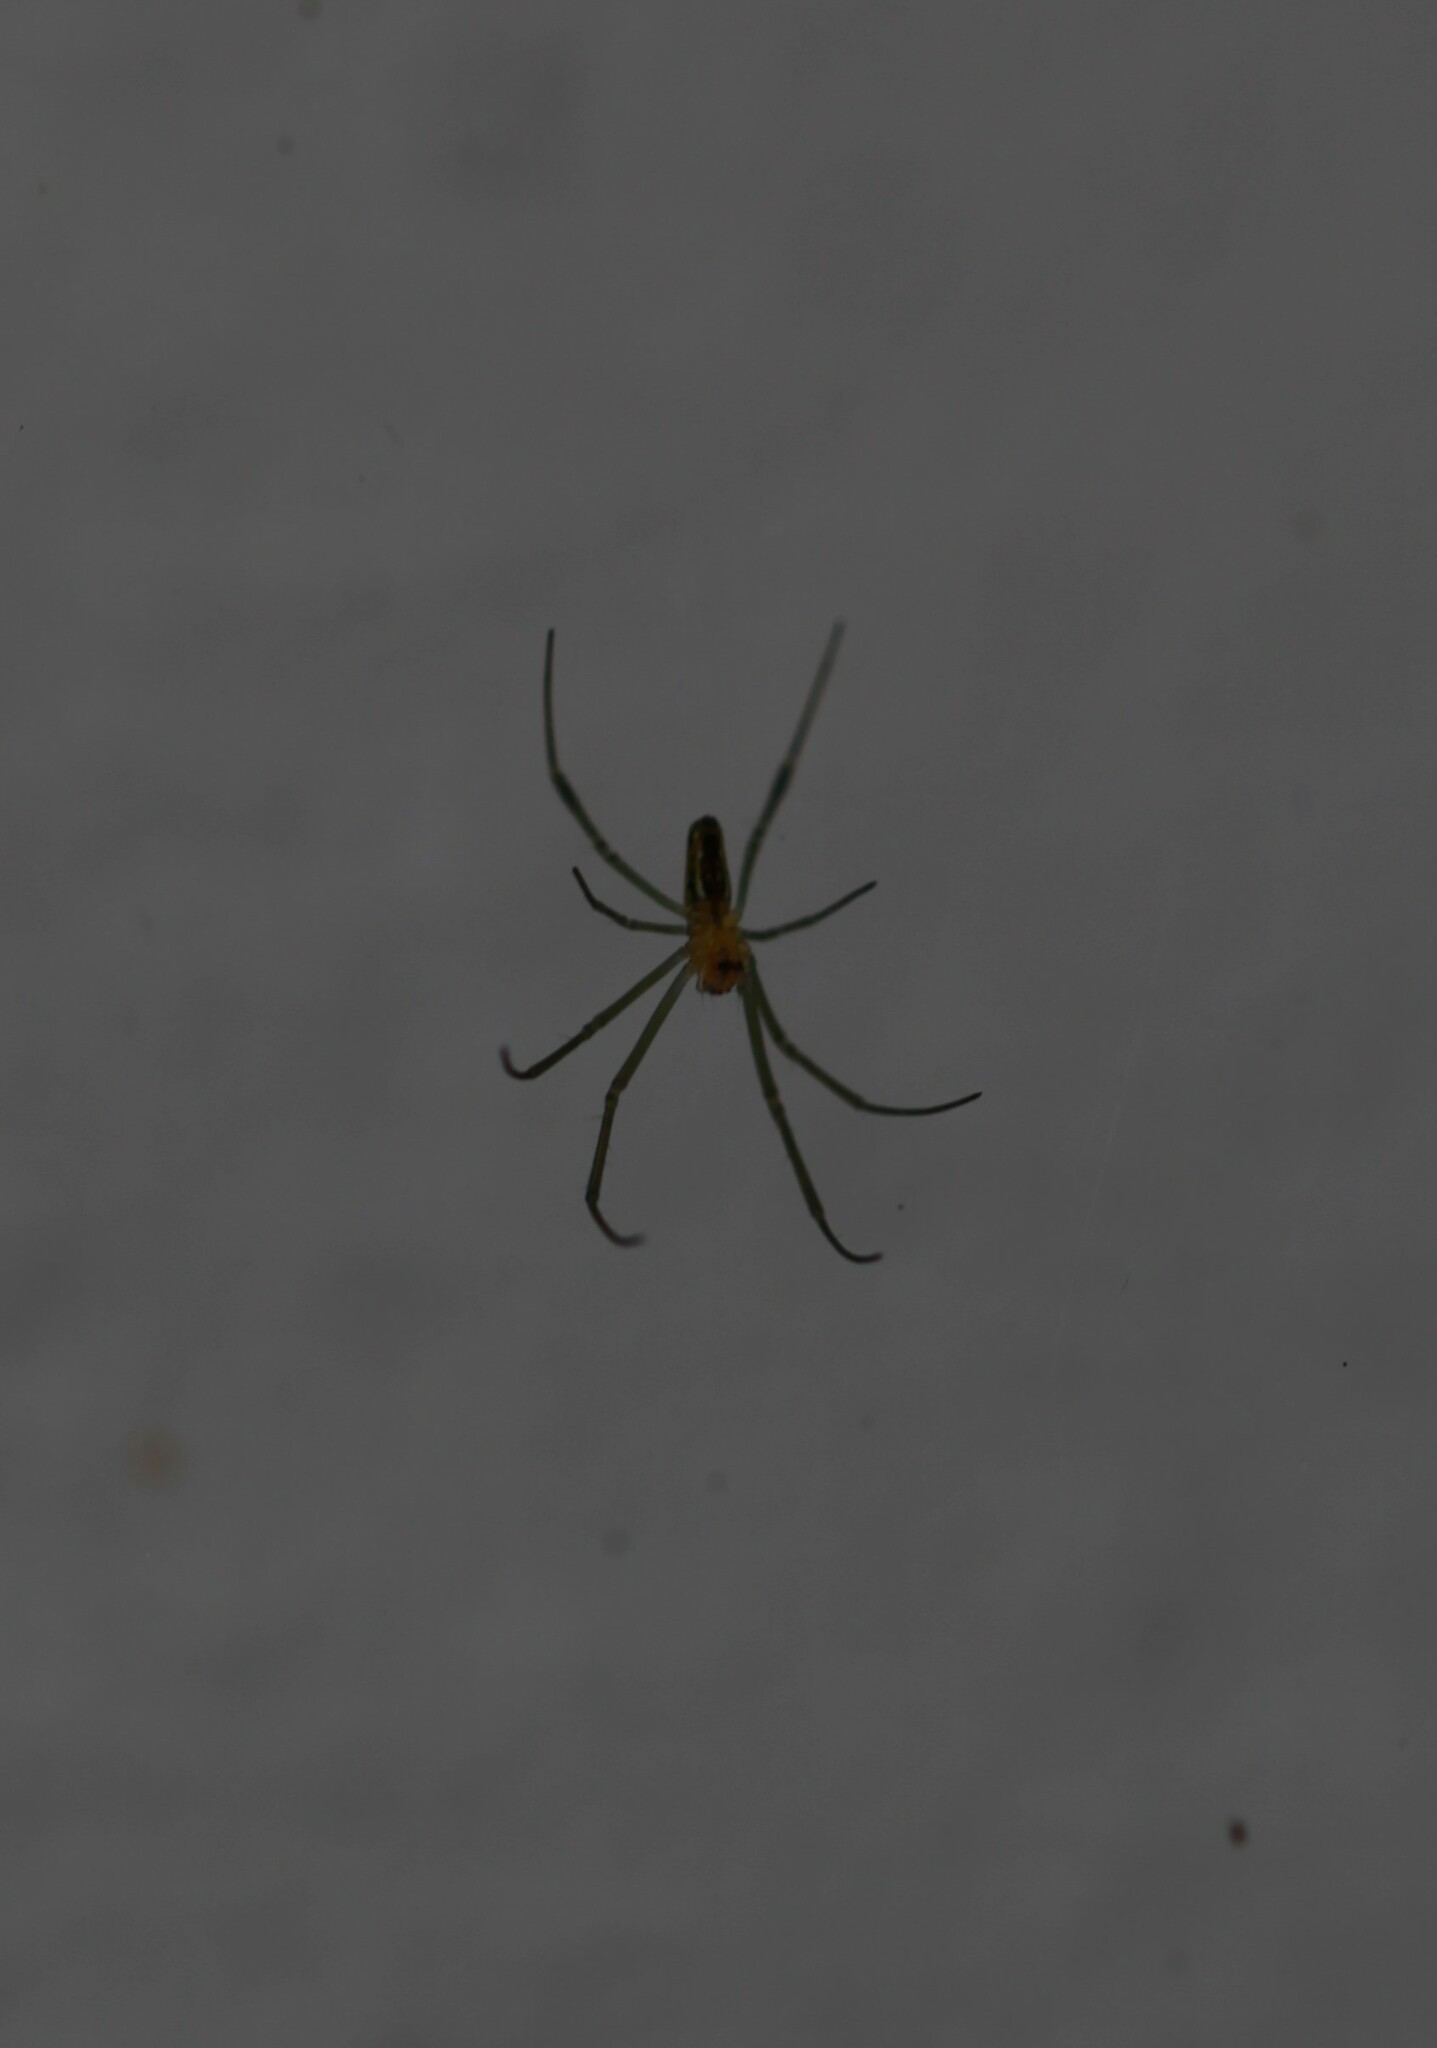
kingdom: Animalia
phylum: Arthropoda
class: Arachnida
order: Araneae
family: Araneidae
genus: Nephila
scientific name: Nephila pilipes
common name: Giant golden orb weaver
